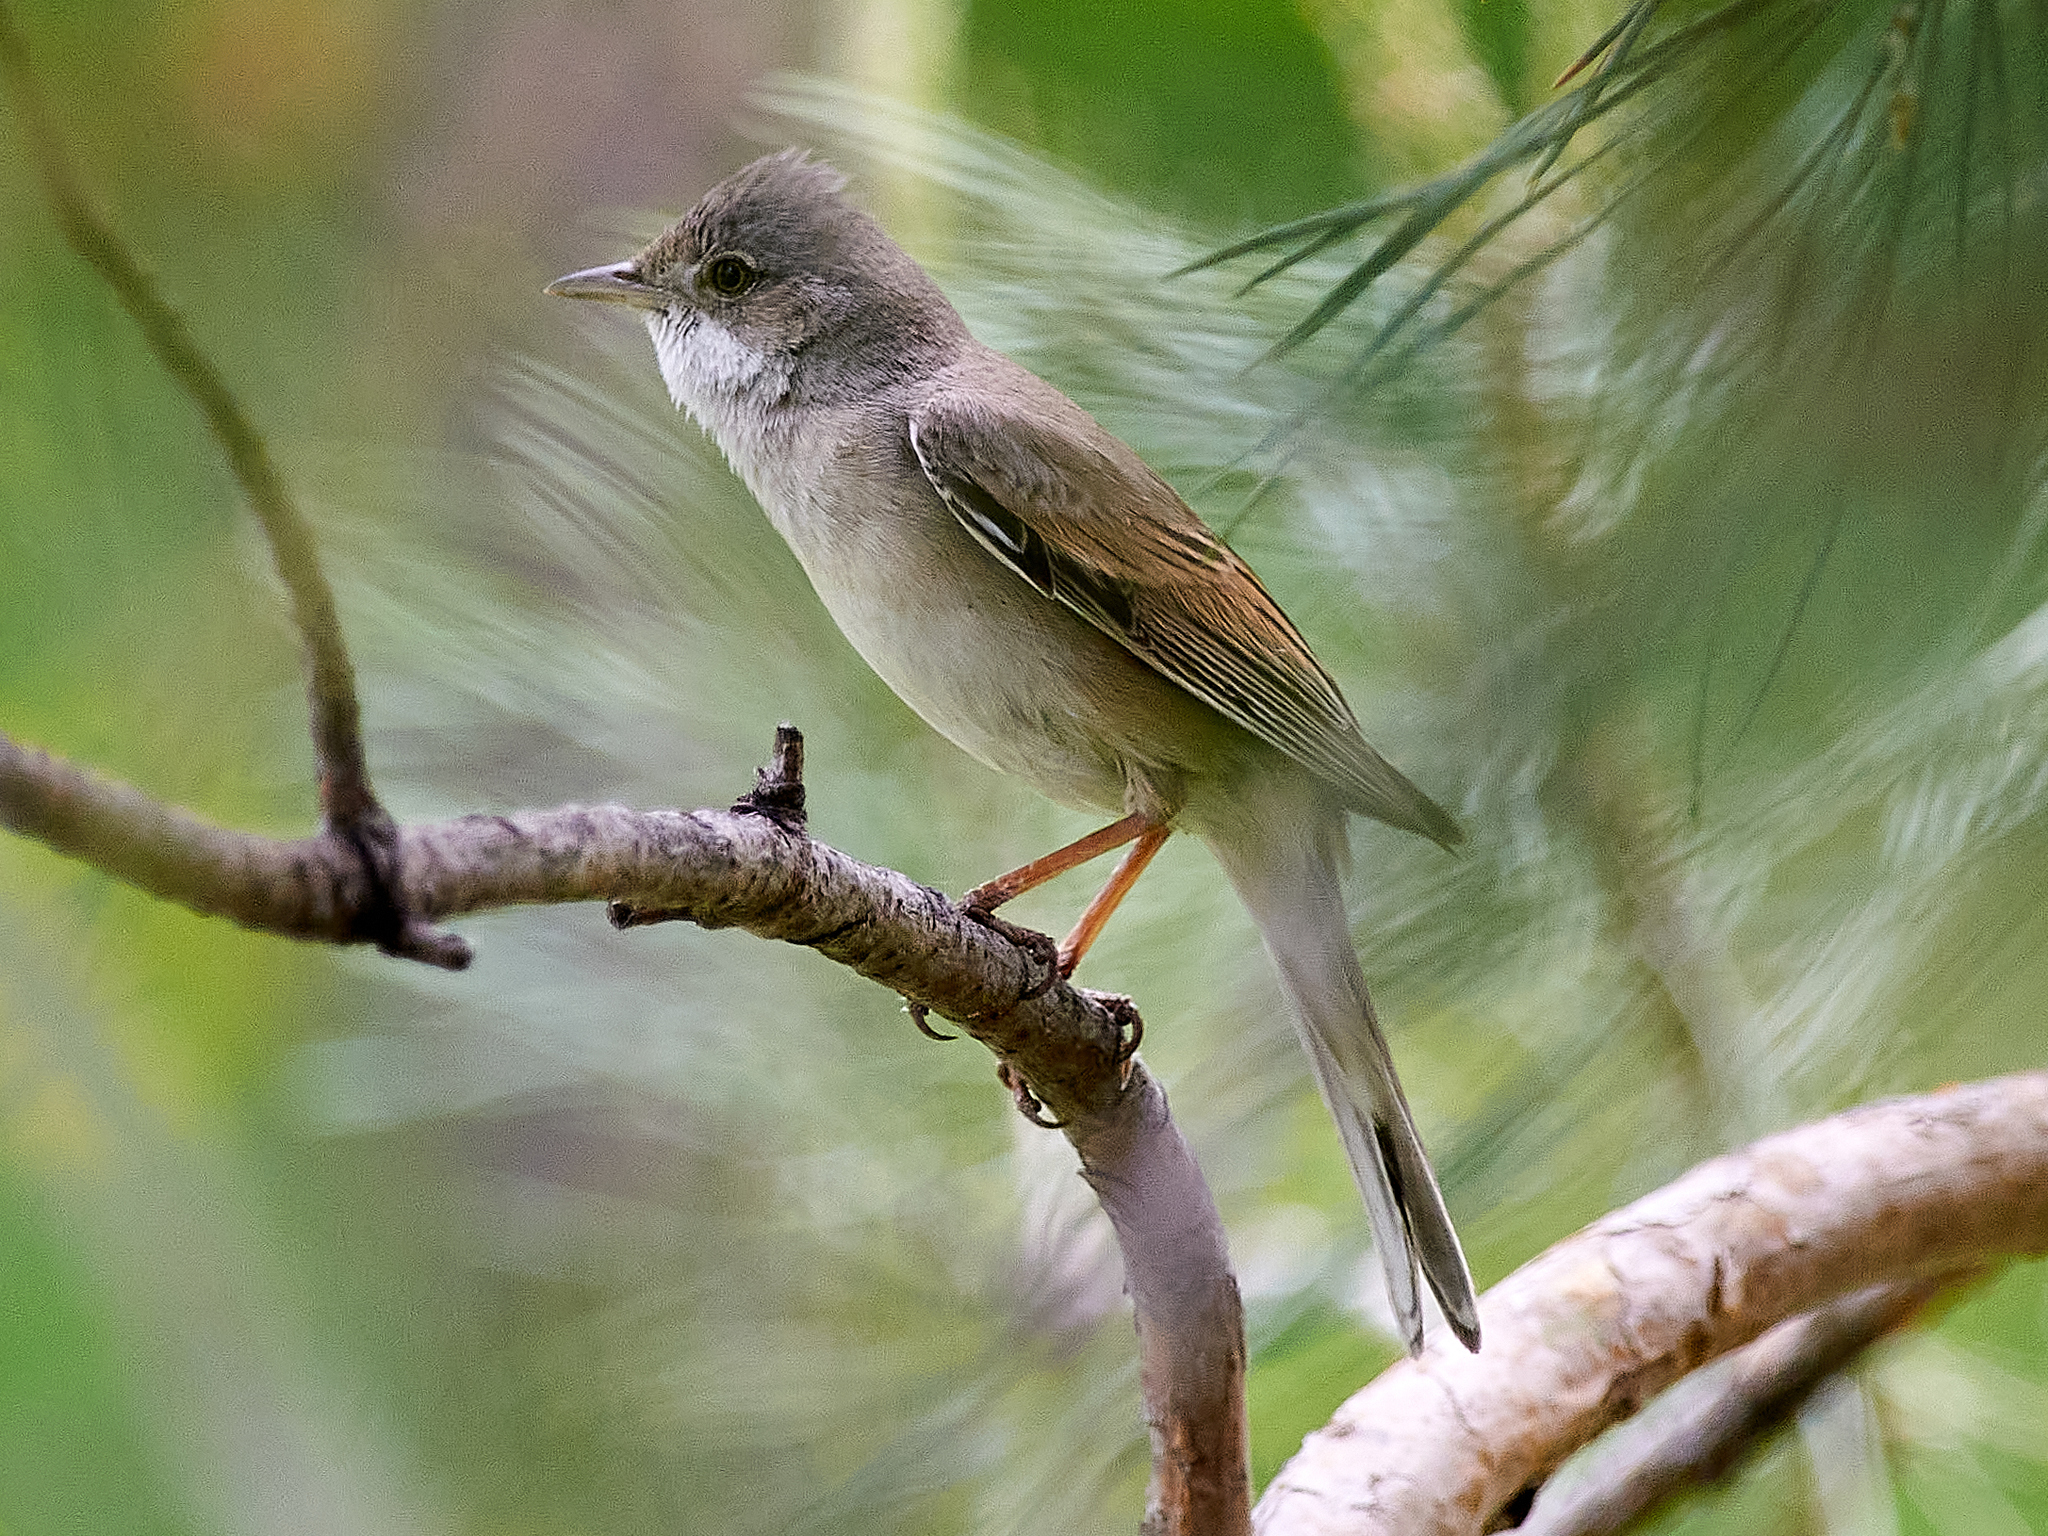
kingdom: Animalia
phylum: Chordata
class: Aves
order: Passeriformes
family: Sylviidae
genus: Sylvia
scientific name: Sylvia communis
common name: Common whitethroat
